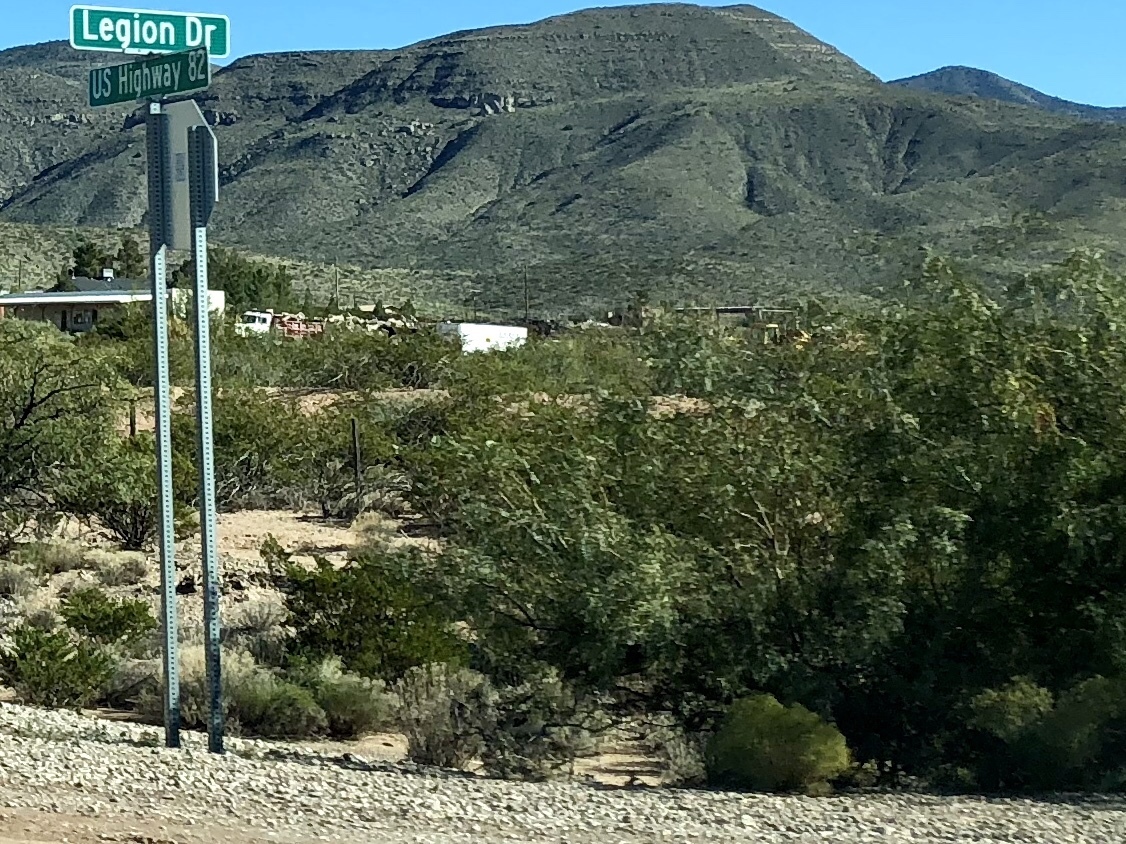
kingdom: Plantae
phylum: Tracheophyta
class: Magnoliopsida
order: Zygophyllales
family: Zygophyllaceae
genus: Larrea
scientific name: Larrea tridentata
